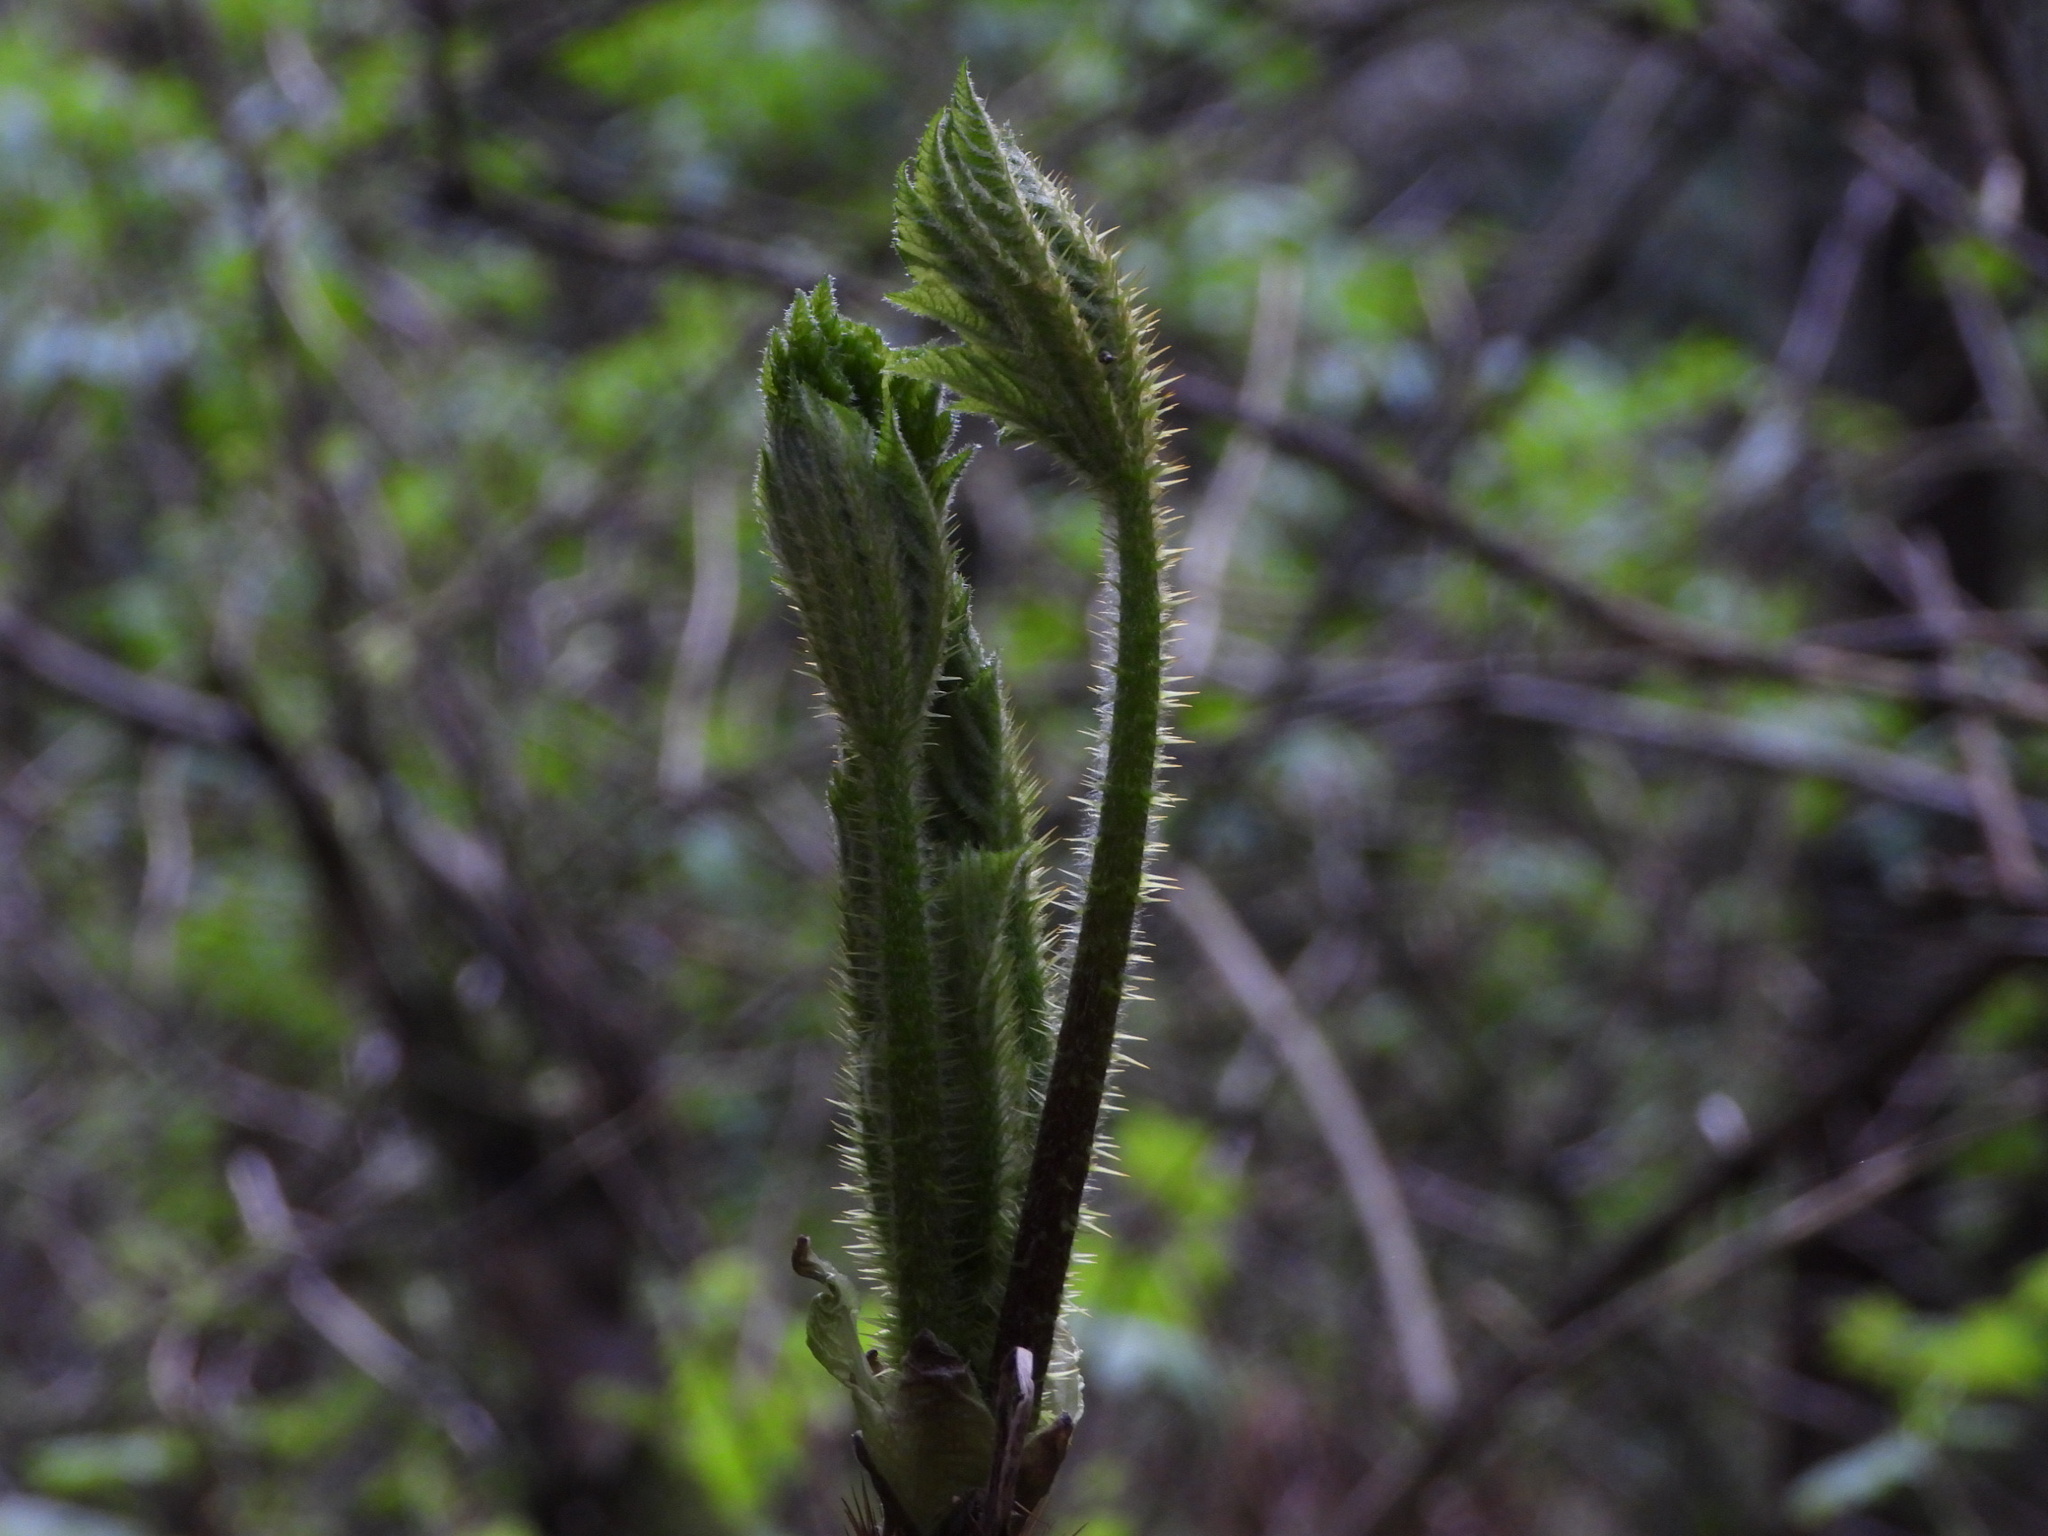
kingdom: Plantae
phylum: Tracheophyta
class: Magnoliopsida
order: Apiales
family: Araliaceae
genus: Oplopanax
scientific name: Oplopanax horridus
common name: Devil's walking-stick
